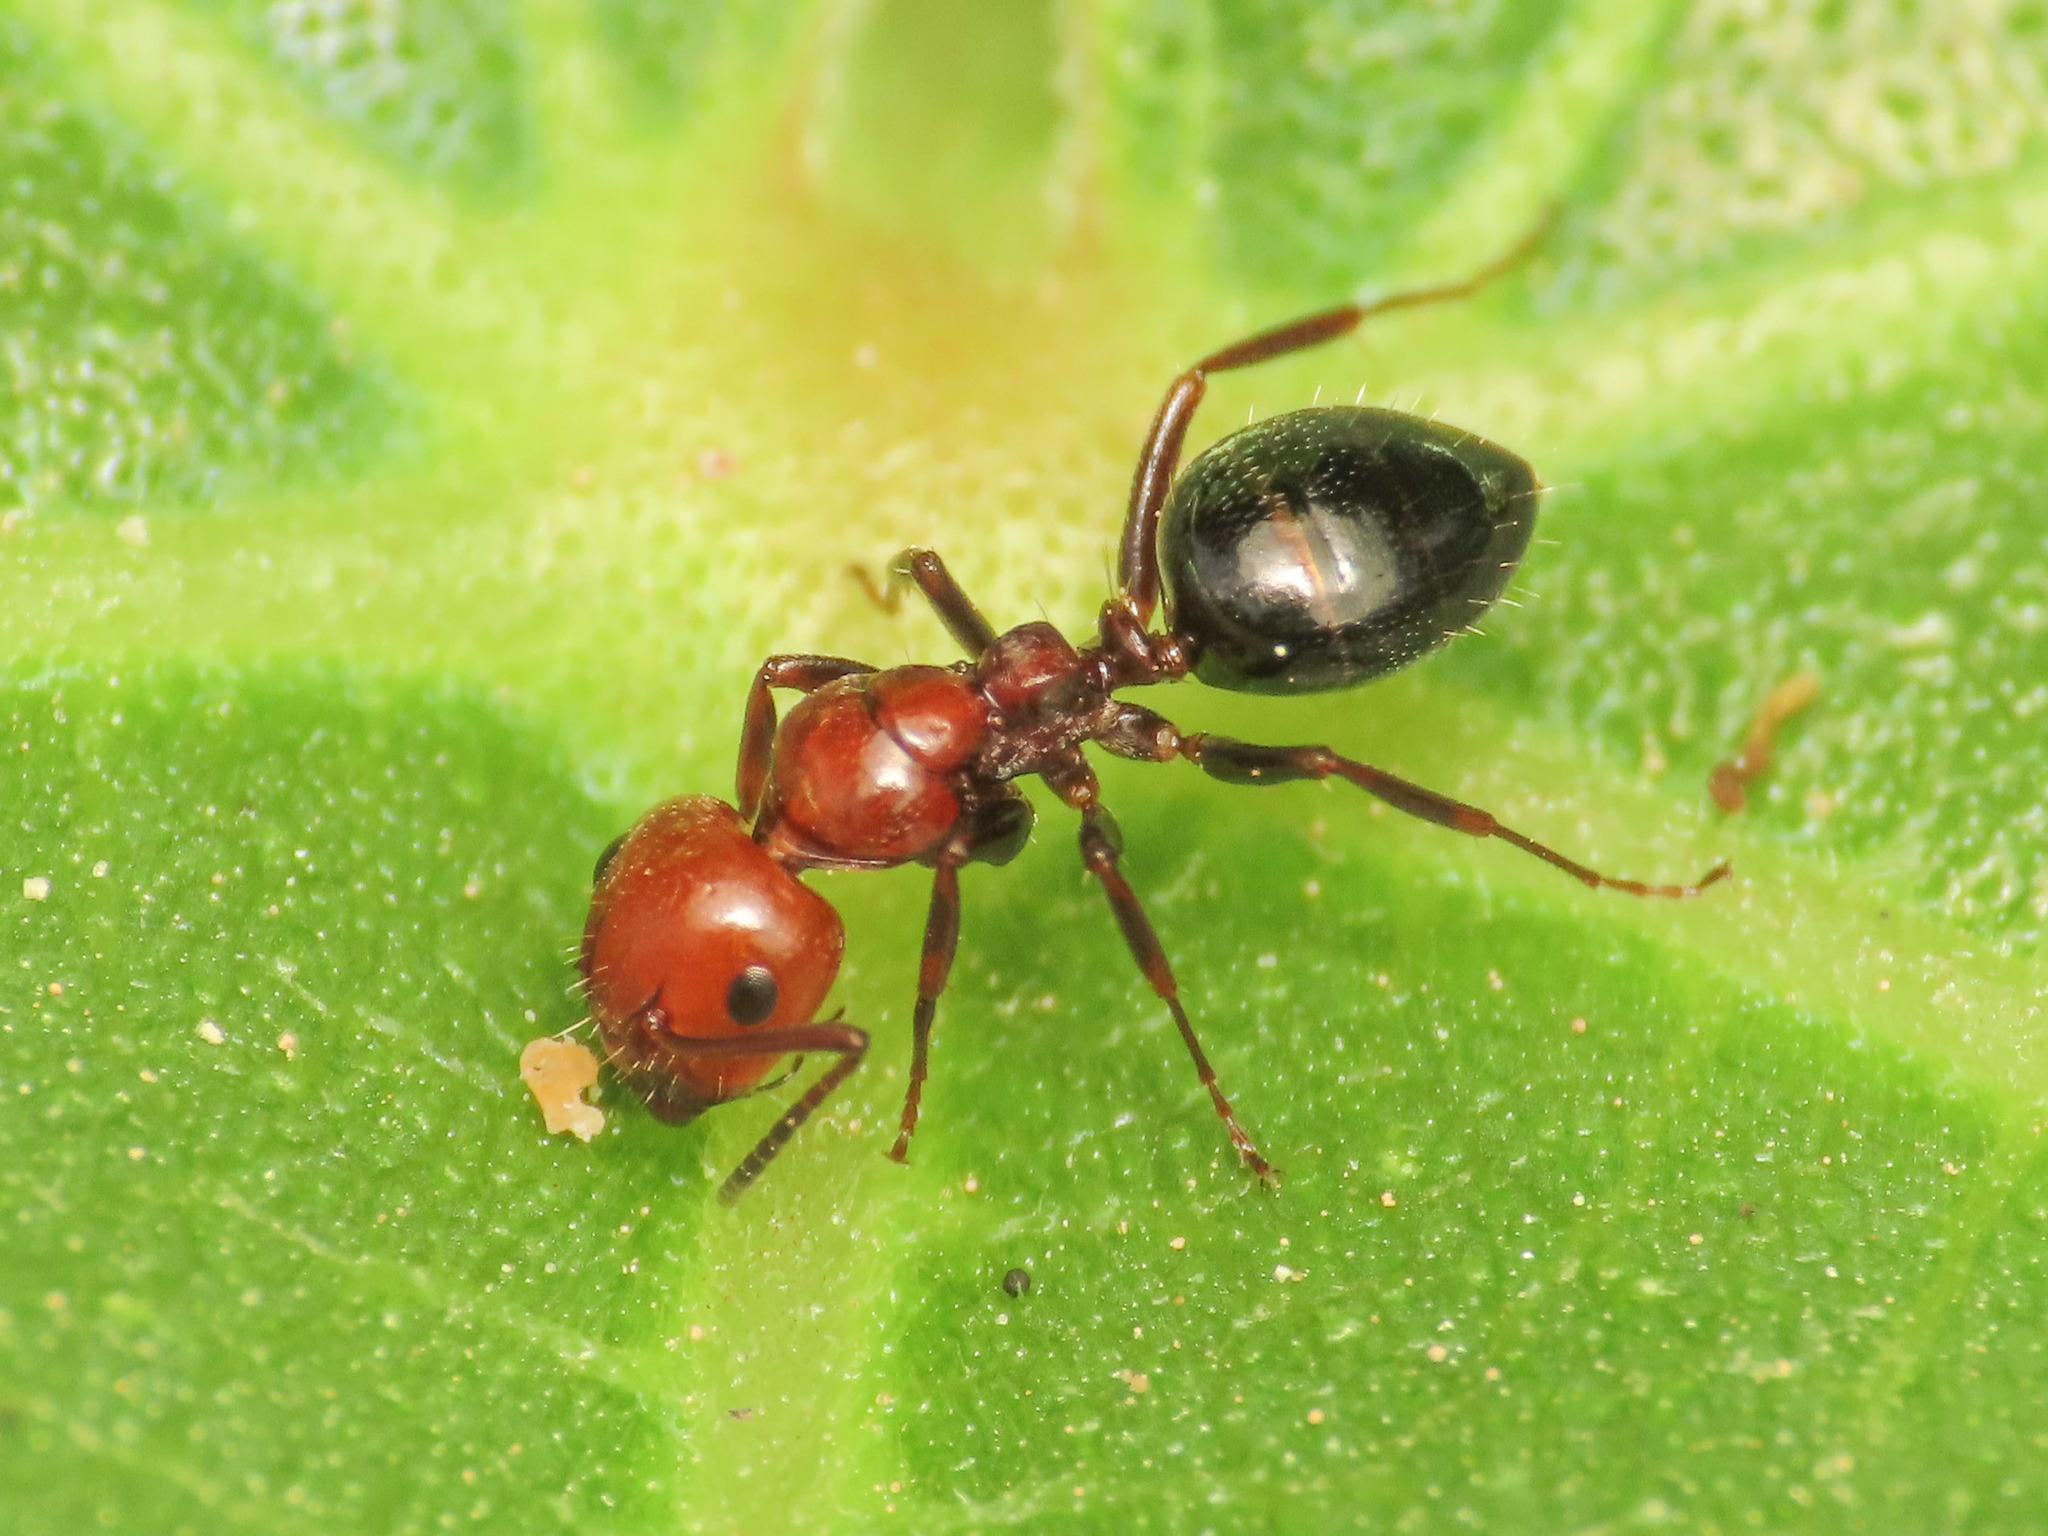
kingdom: Animalia
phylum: Arthropoda
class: Insecta
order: Hymenoptera
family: Formicidae
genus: Camponotus
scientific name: Camponotus lateralis
